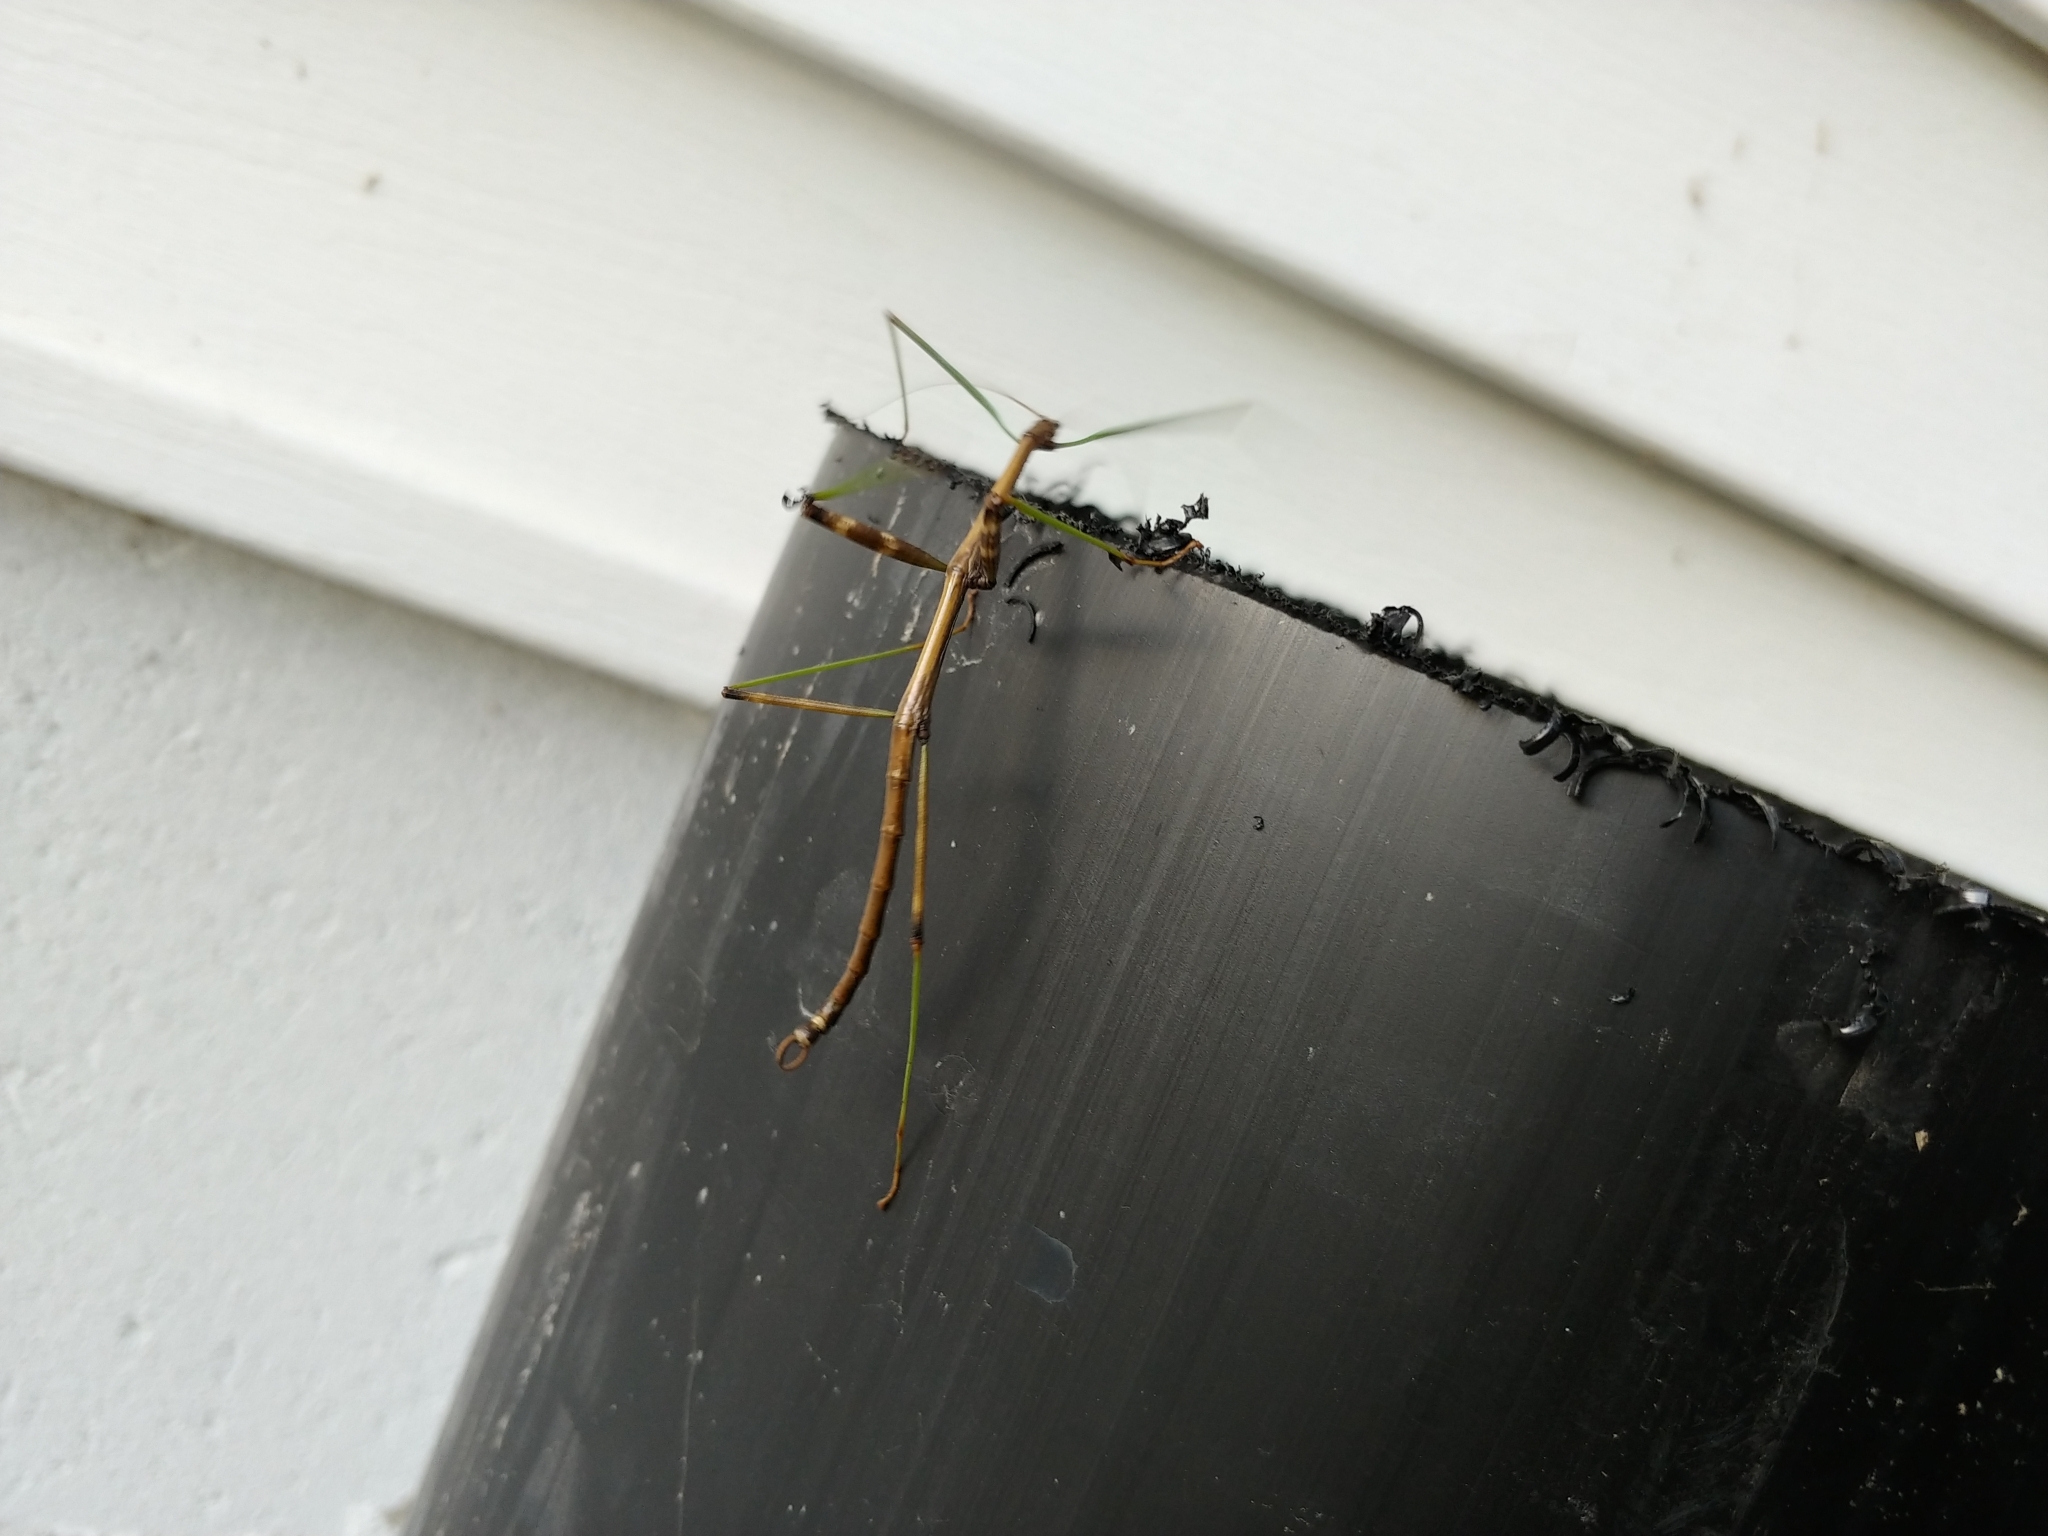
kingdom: Animalia
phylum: Arthropoda
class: Insecta
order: Phasmida
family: Diapheromeridae
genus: Diapheromera
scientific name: Diapheromera femorata
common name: Common american walkingstick
